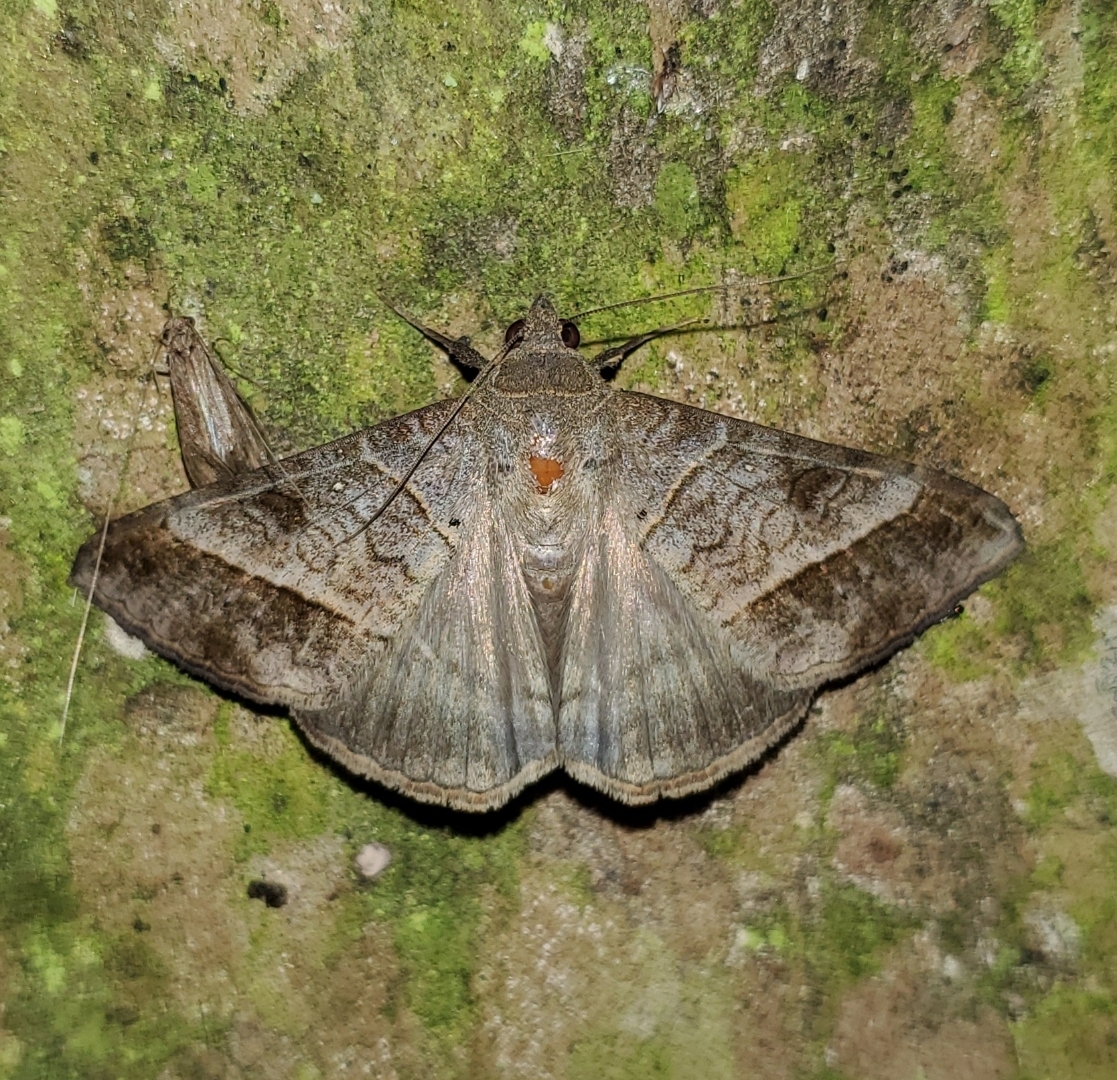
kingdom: Animalia
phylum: Arthropoda
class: Insecta
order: Lepidoptera
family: Erebidae
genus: Mocis
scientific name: Mocis latipes
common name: Striped grass looper
